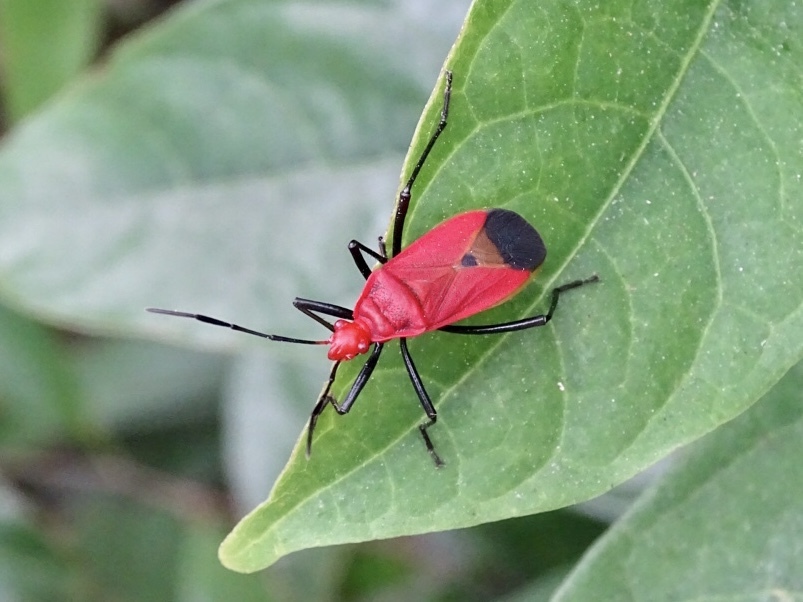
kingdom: Animalia
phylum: Arthropoda
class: Insecta
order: Hemiptera
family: Pyrrhocoridae
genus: Dindymus
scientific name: Dindymus
